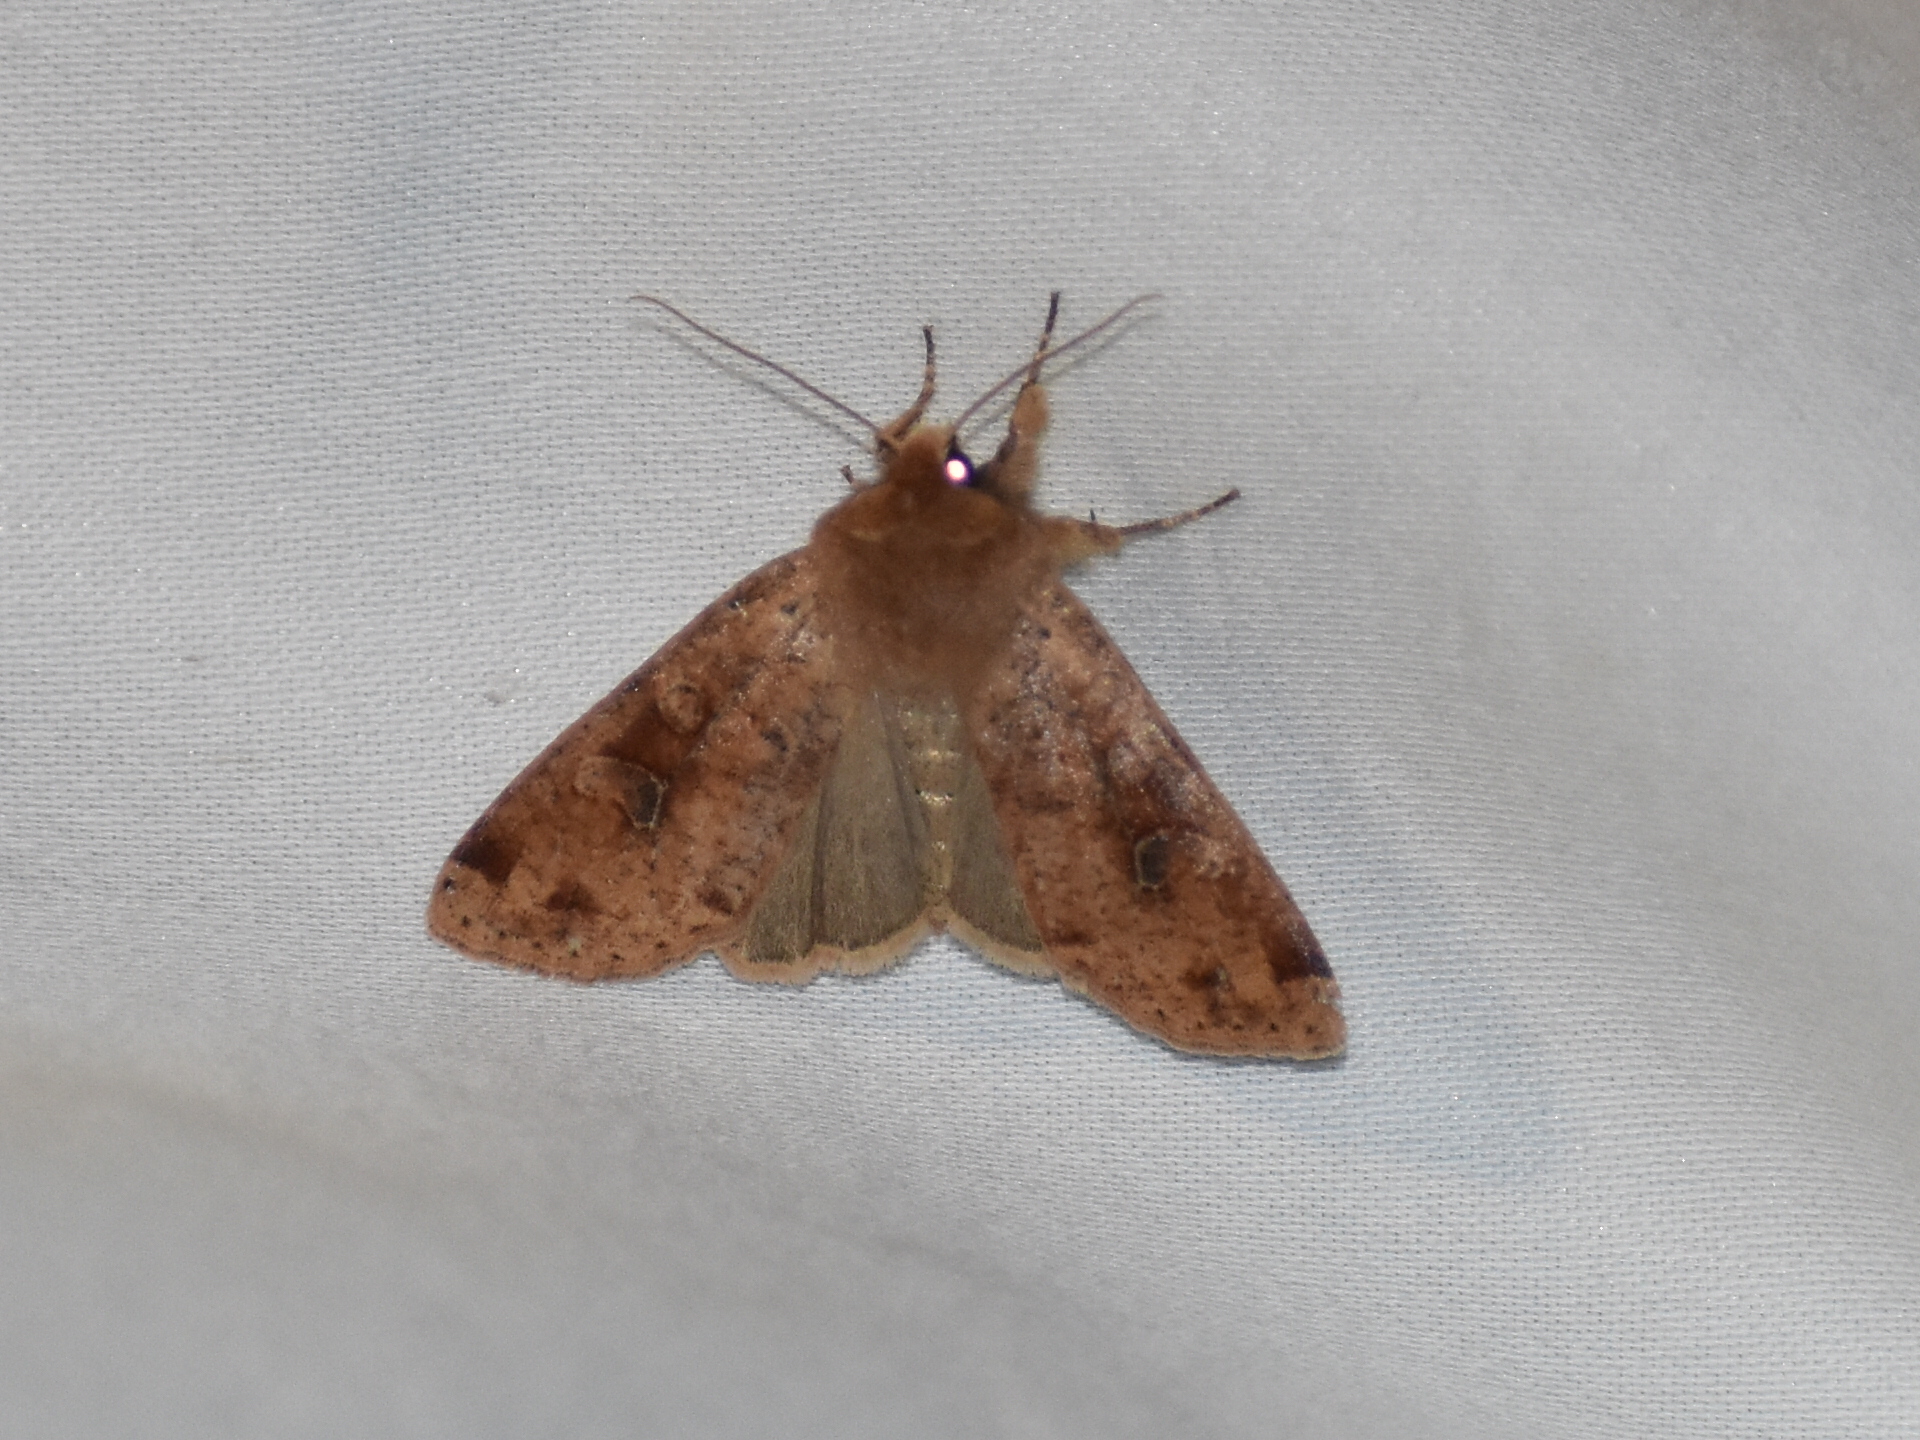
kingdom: Animalia
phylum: Arthropoda
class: Insecta
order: Lepidoptera
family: Noctuidae
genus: Orthosia
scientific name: Orthosia rubescens
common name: Ruby quaker
